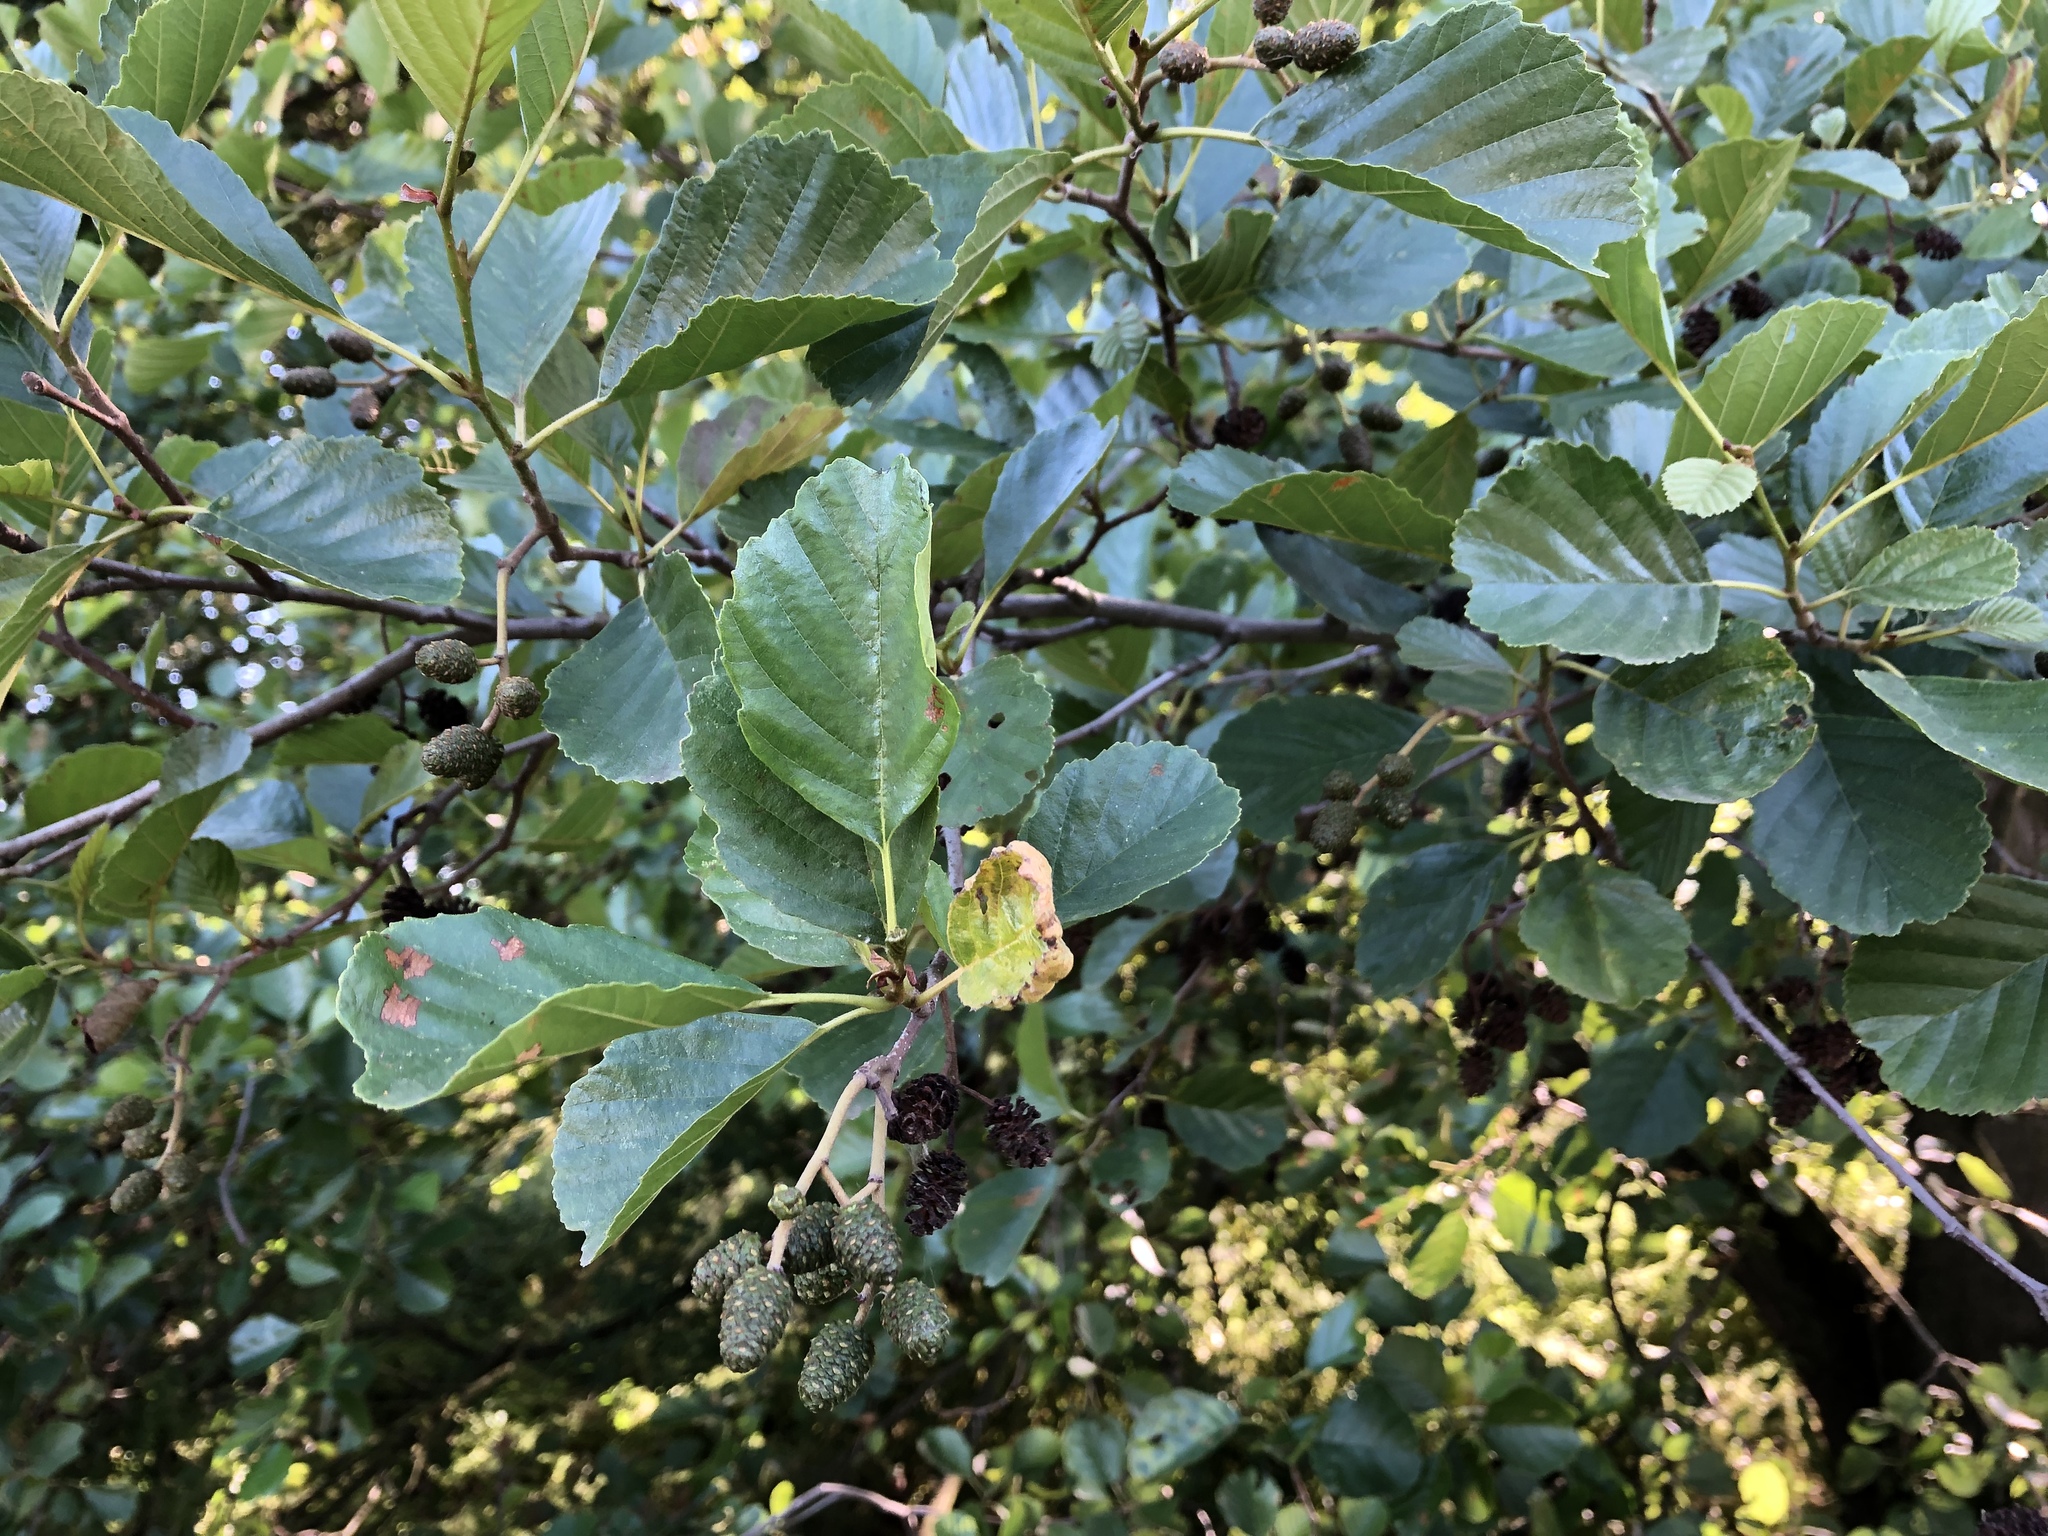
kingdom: Plantae
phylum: Tracheophyta
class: Magnoliopsida
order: Fagales
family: Betulaceae
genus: Alnus
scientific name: Alnus glutinosa
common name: Black alder
